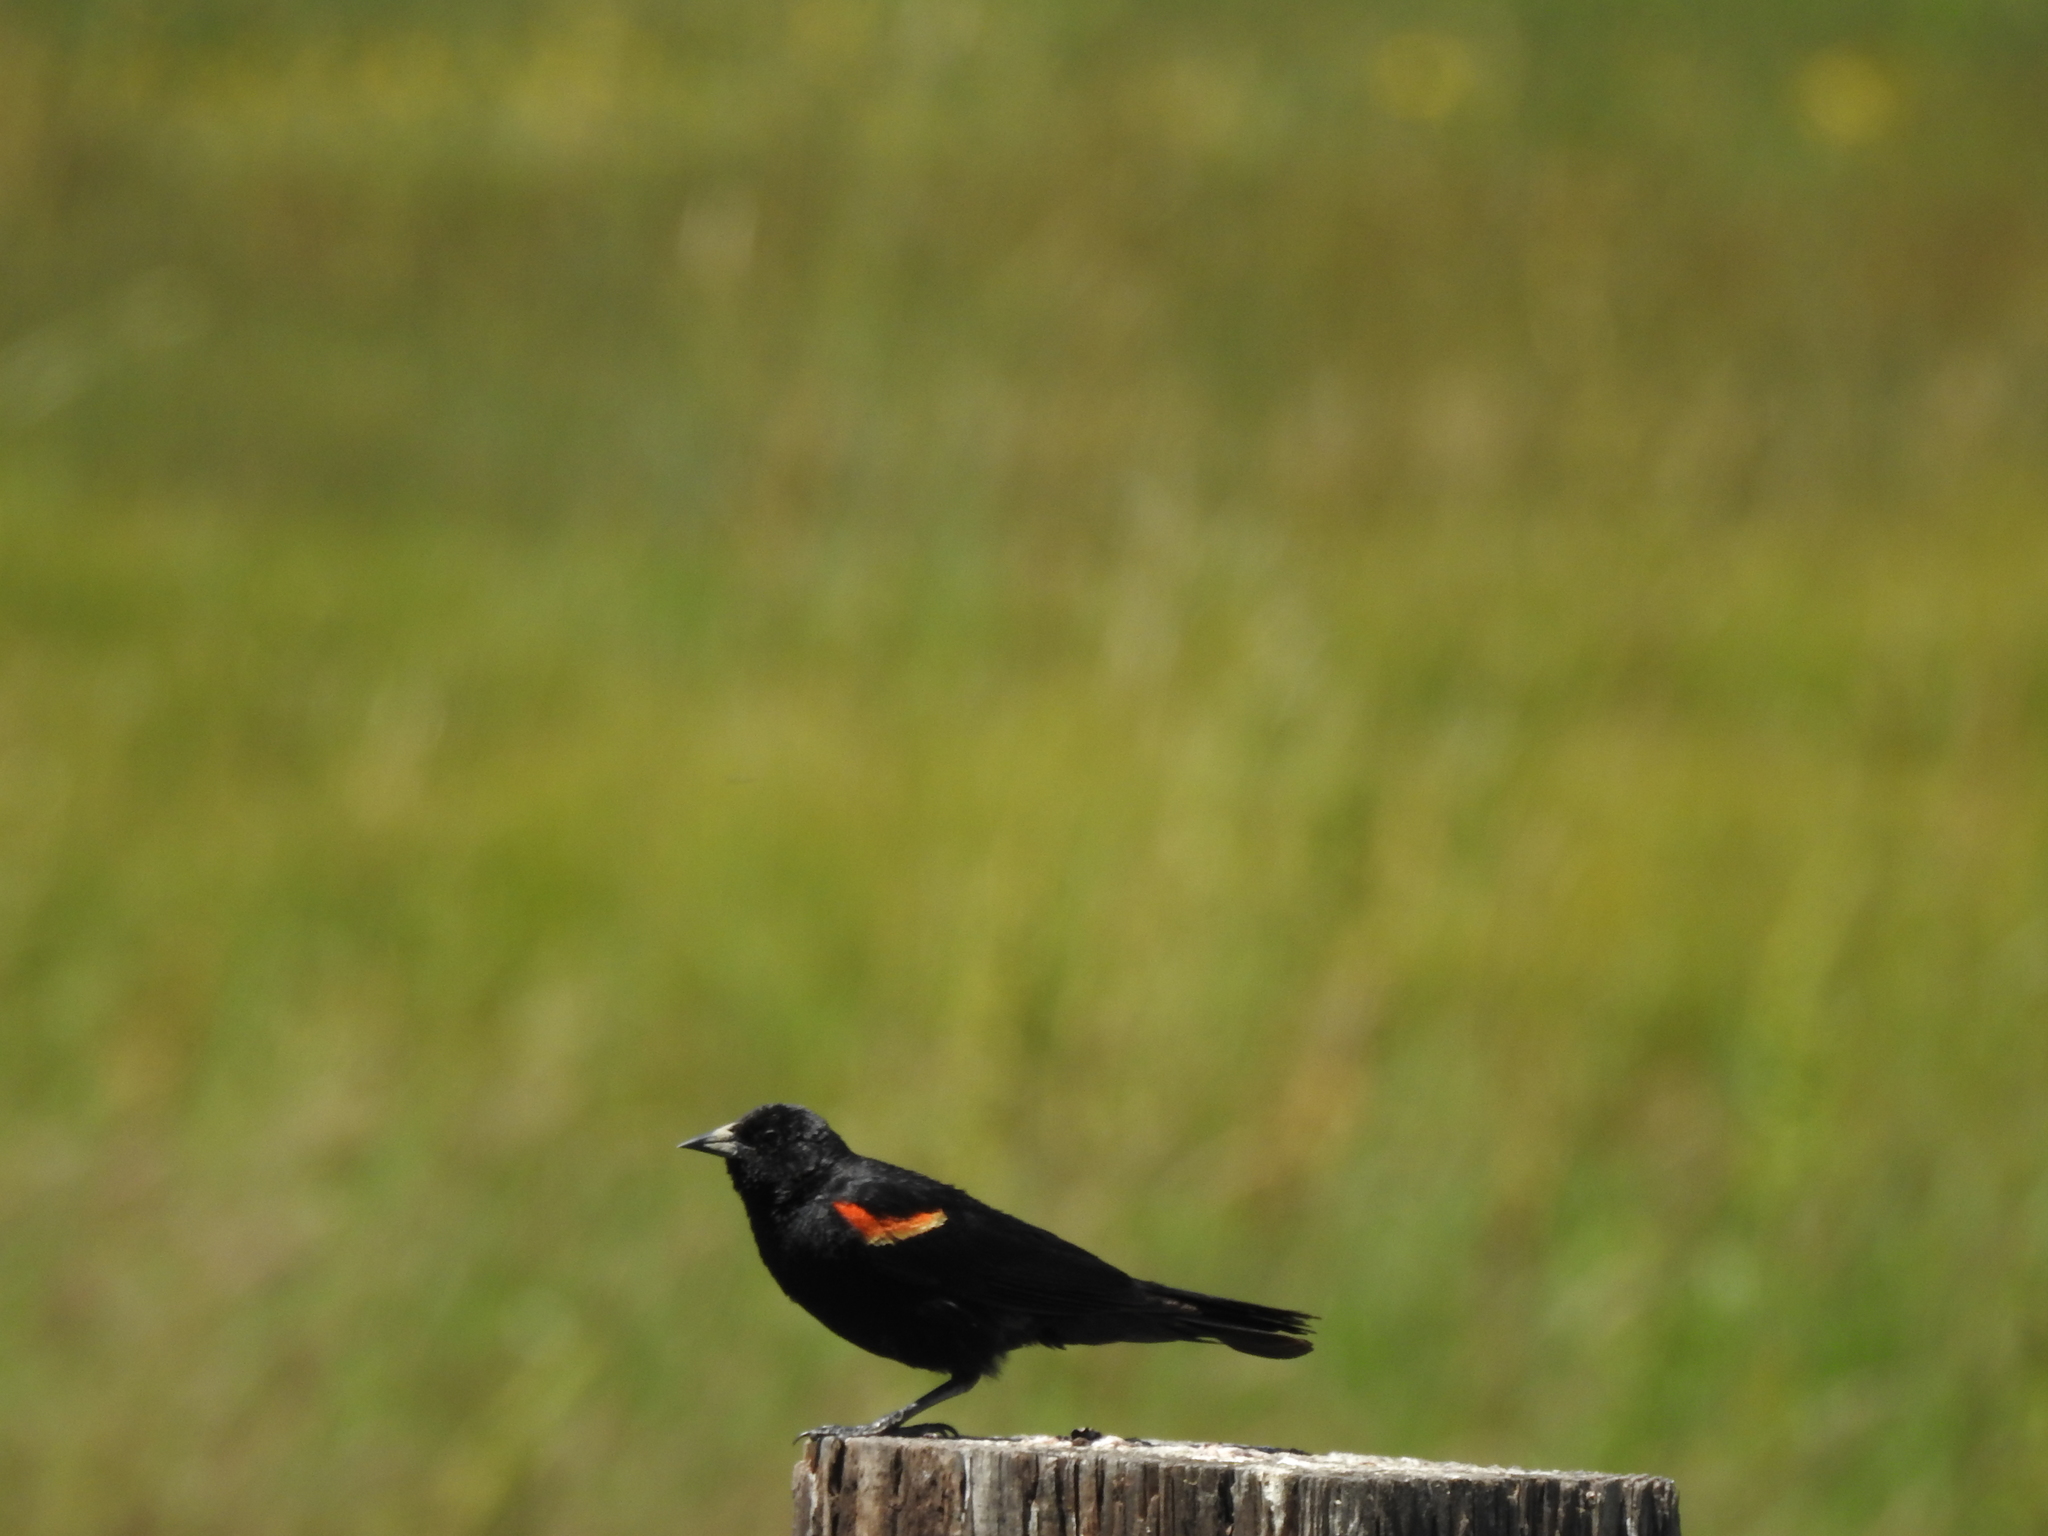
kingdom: Animalia
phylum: Chordata
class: Aves
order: Passeriformes
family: Icteridae
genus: Agelaius
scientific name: Agelaius phoeniceus
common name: Red-winged blackbird
